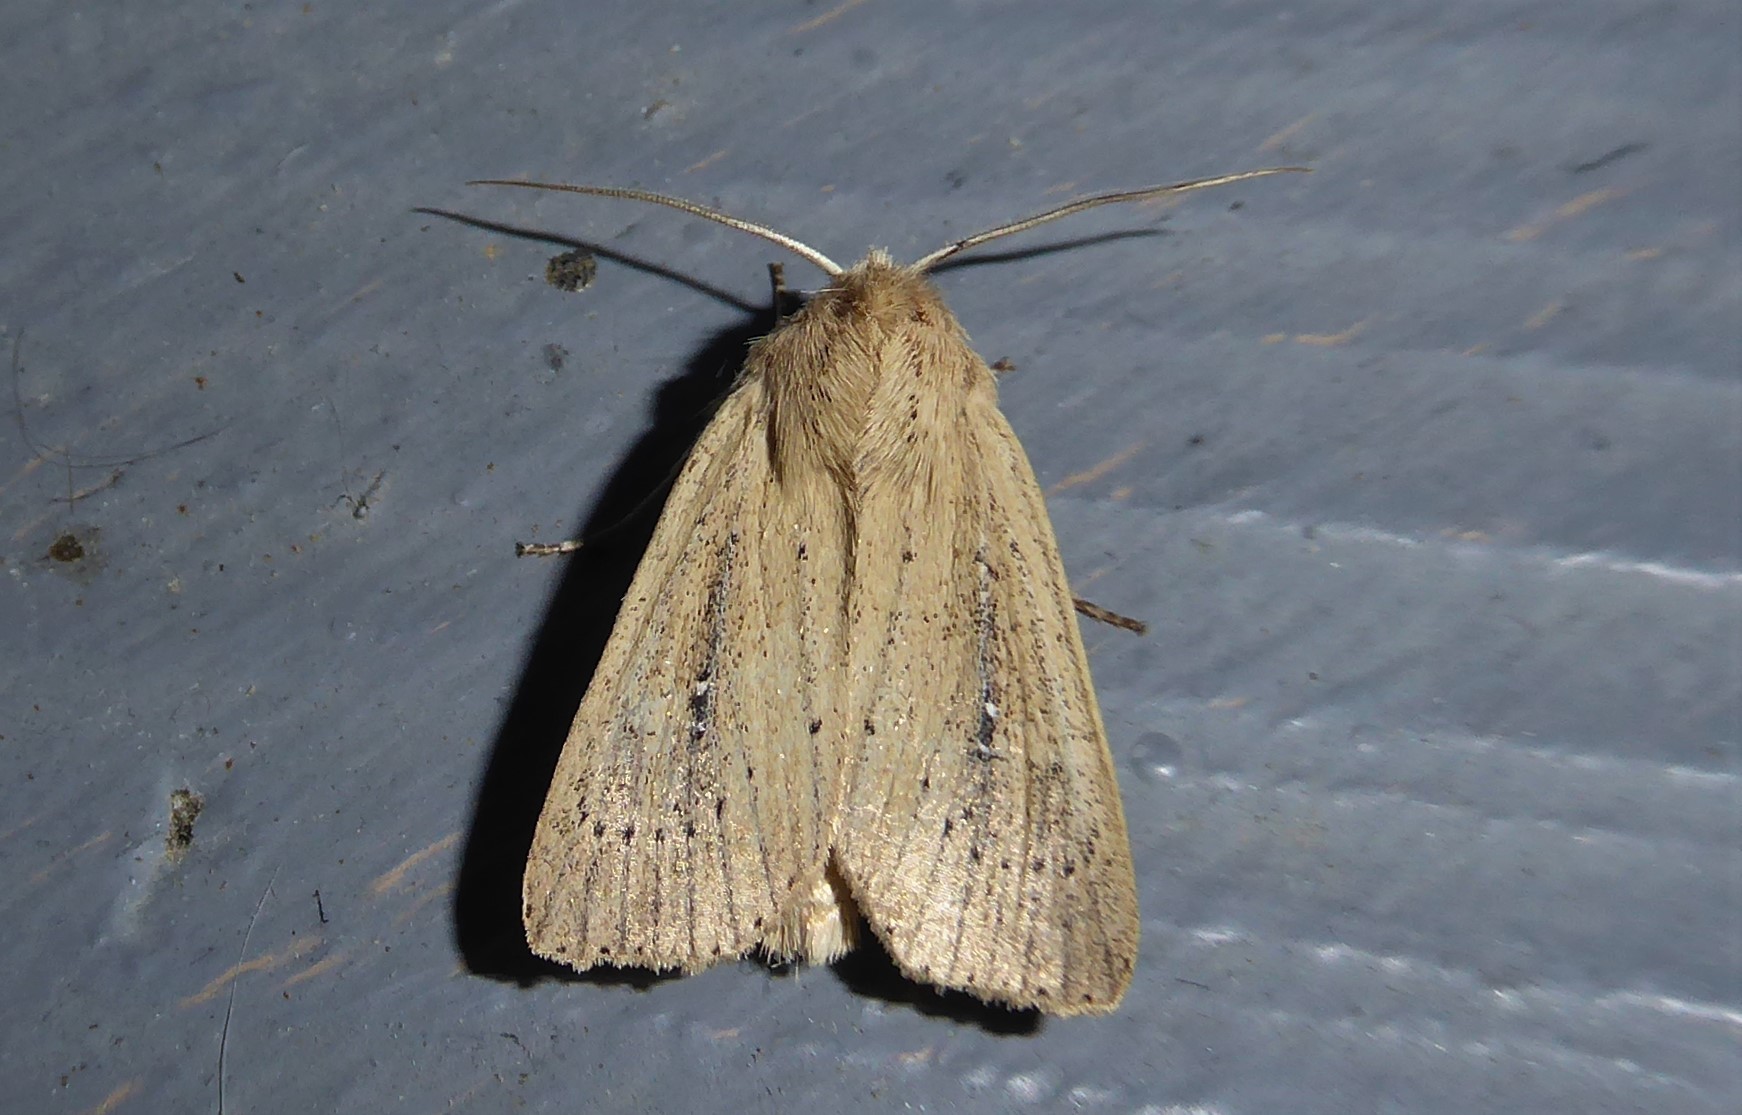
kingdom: Animalia
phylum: Arthropoda
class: Insecta
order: Lepidoptera
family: Noctuidae
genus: Ichneutica
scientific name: Ichneutica
